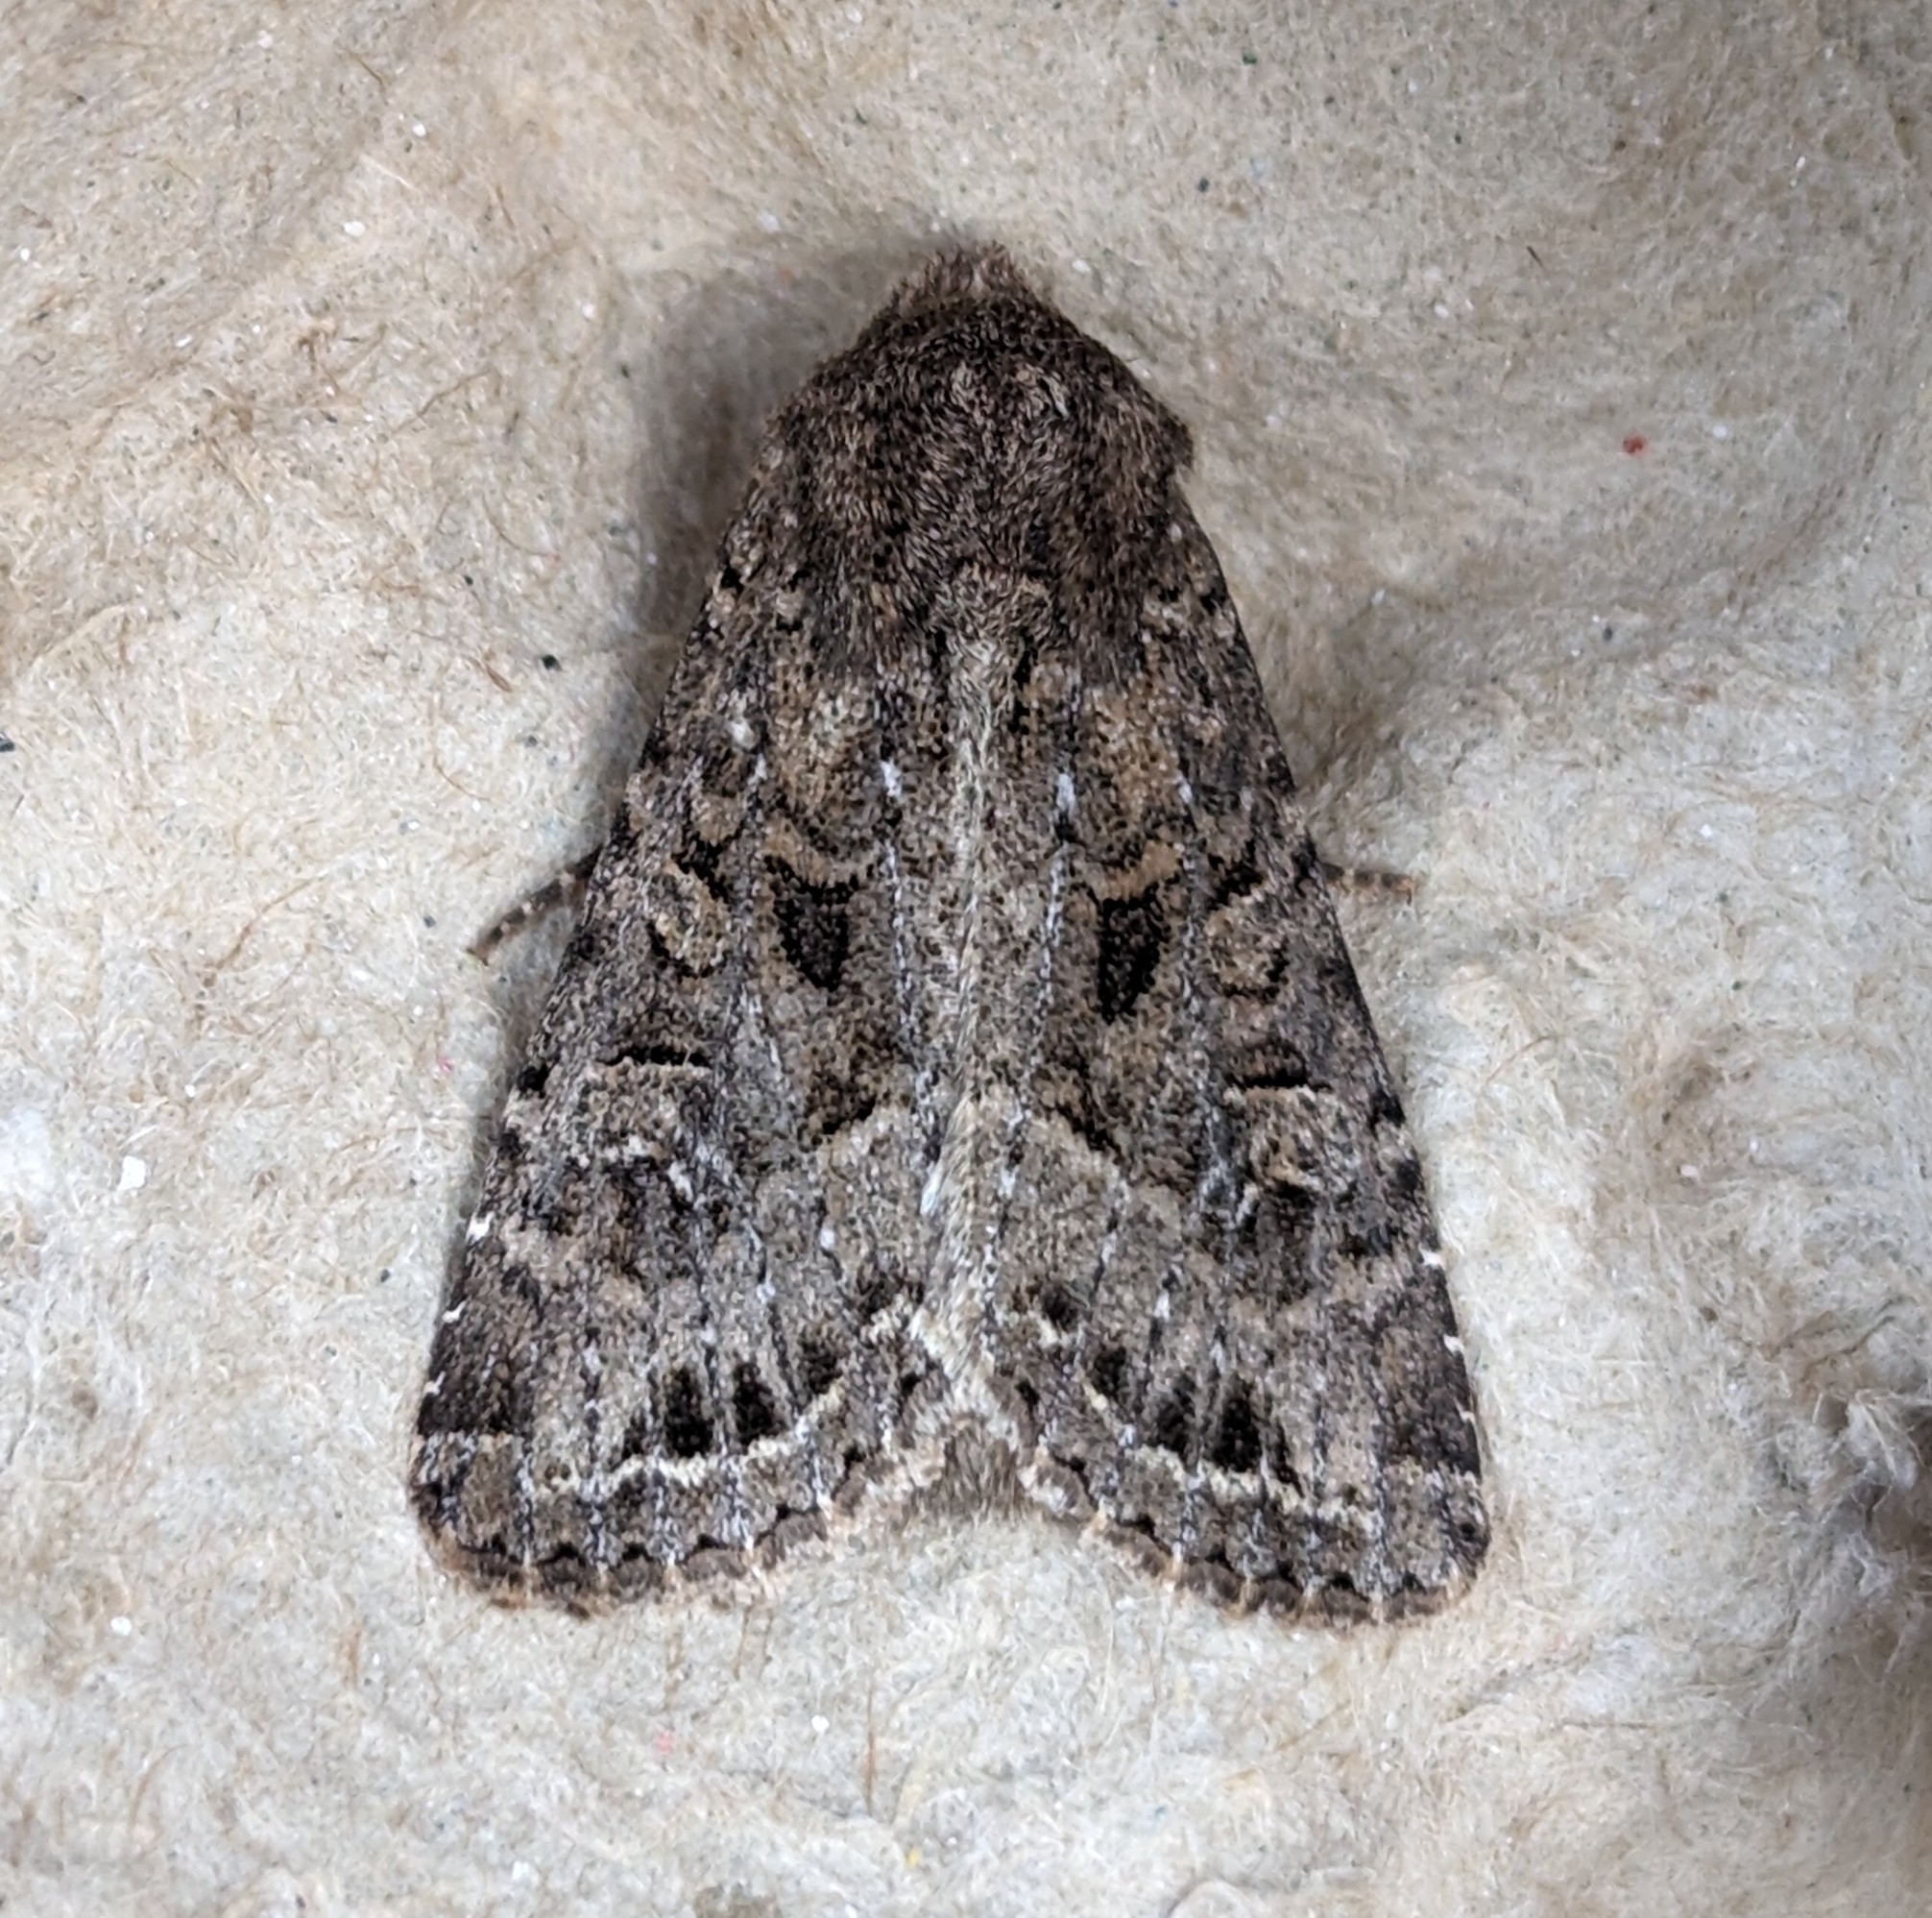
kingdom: Animalia
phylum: Arthropoda
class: Insecta
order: Lepidoptera
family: Noctuidae
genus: Apamea
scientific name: Apamea devastator
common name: Glassy cutworm
